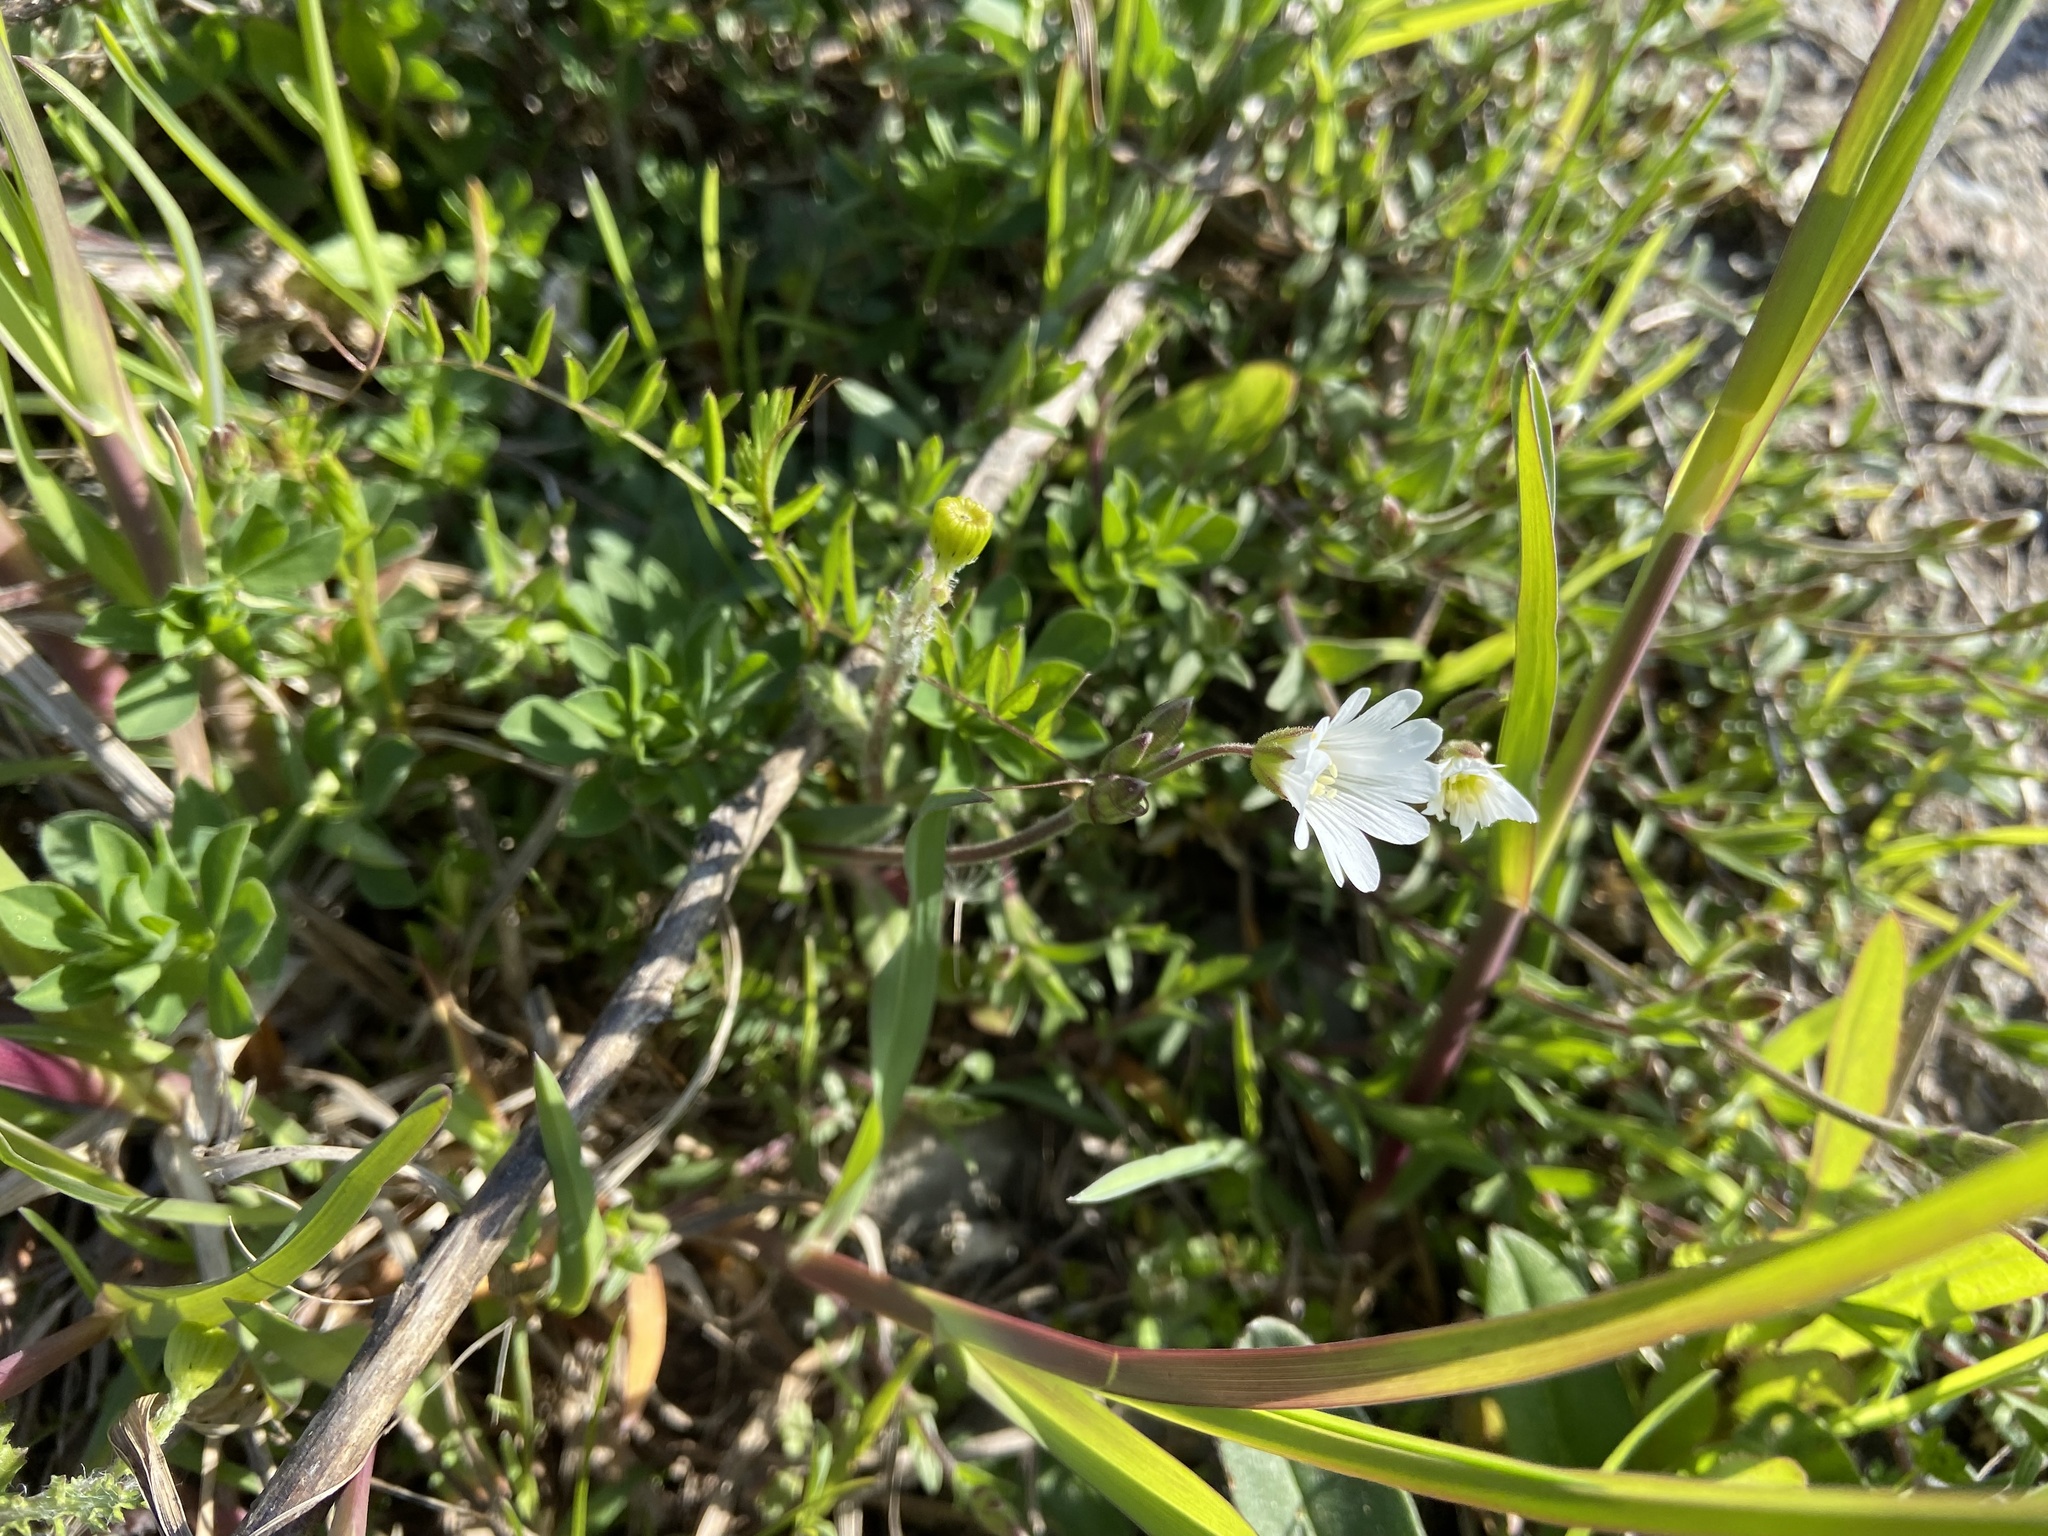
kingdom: Plantae
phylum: Tracheophyta
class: Magnoliopsida
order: Caryophyllales
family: Caryophyllaceae
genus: Cerastium
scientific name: Cerastium arvense
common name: Field mouse-ear
